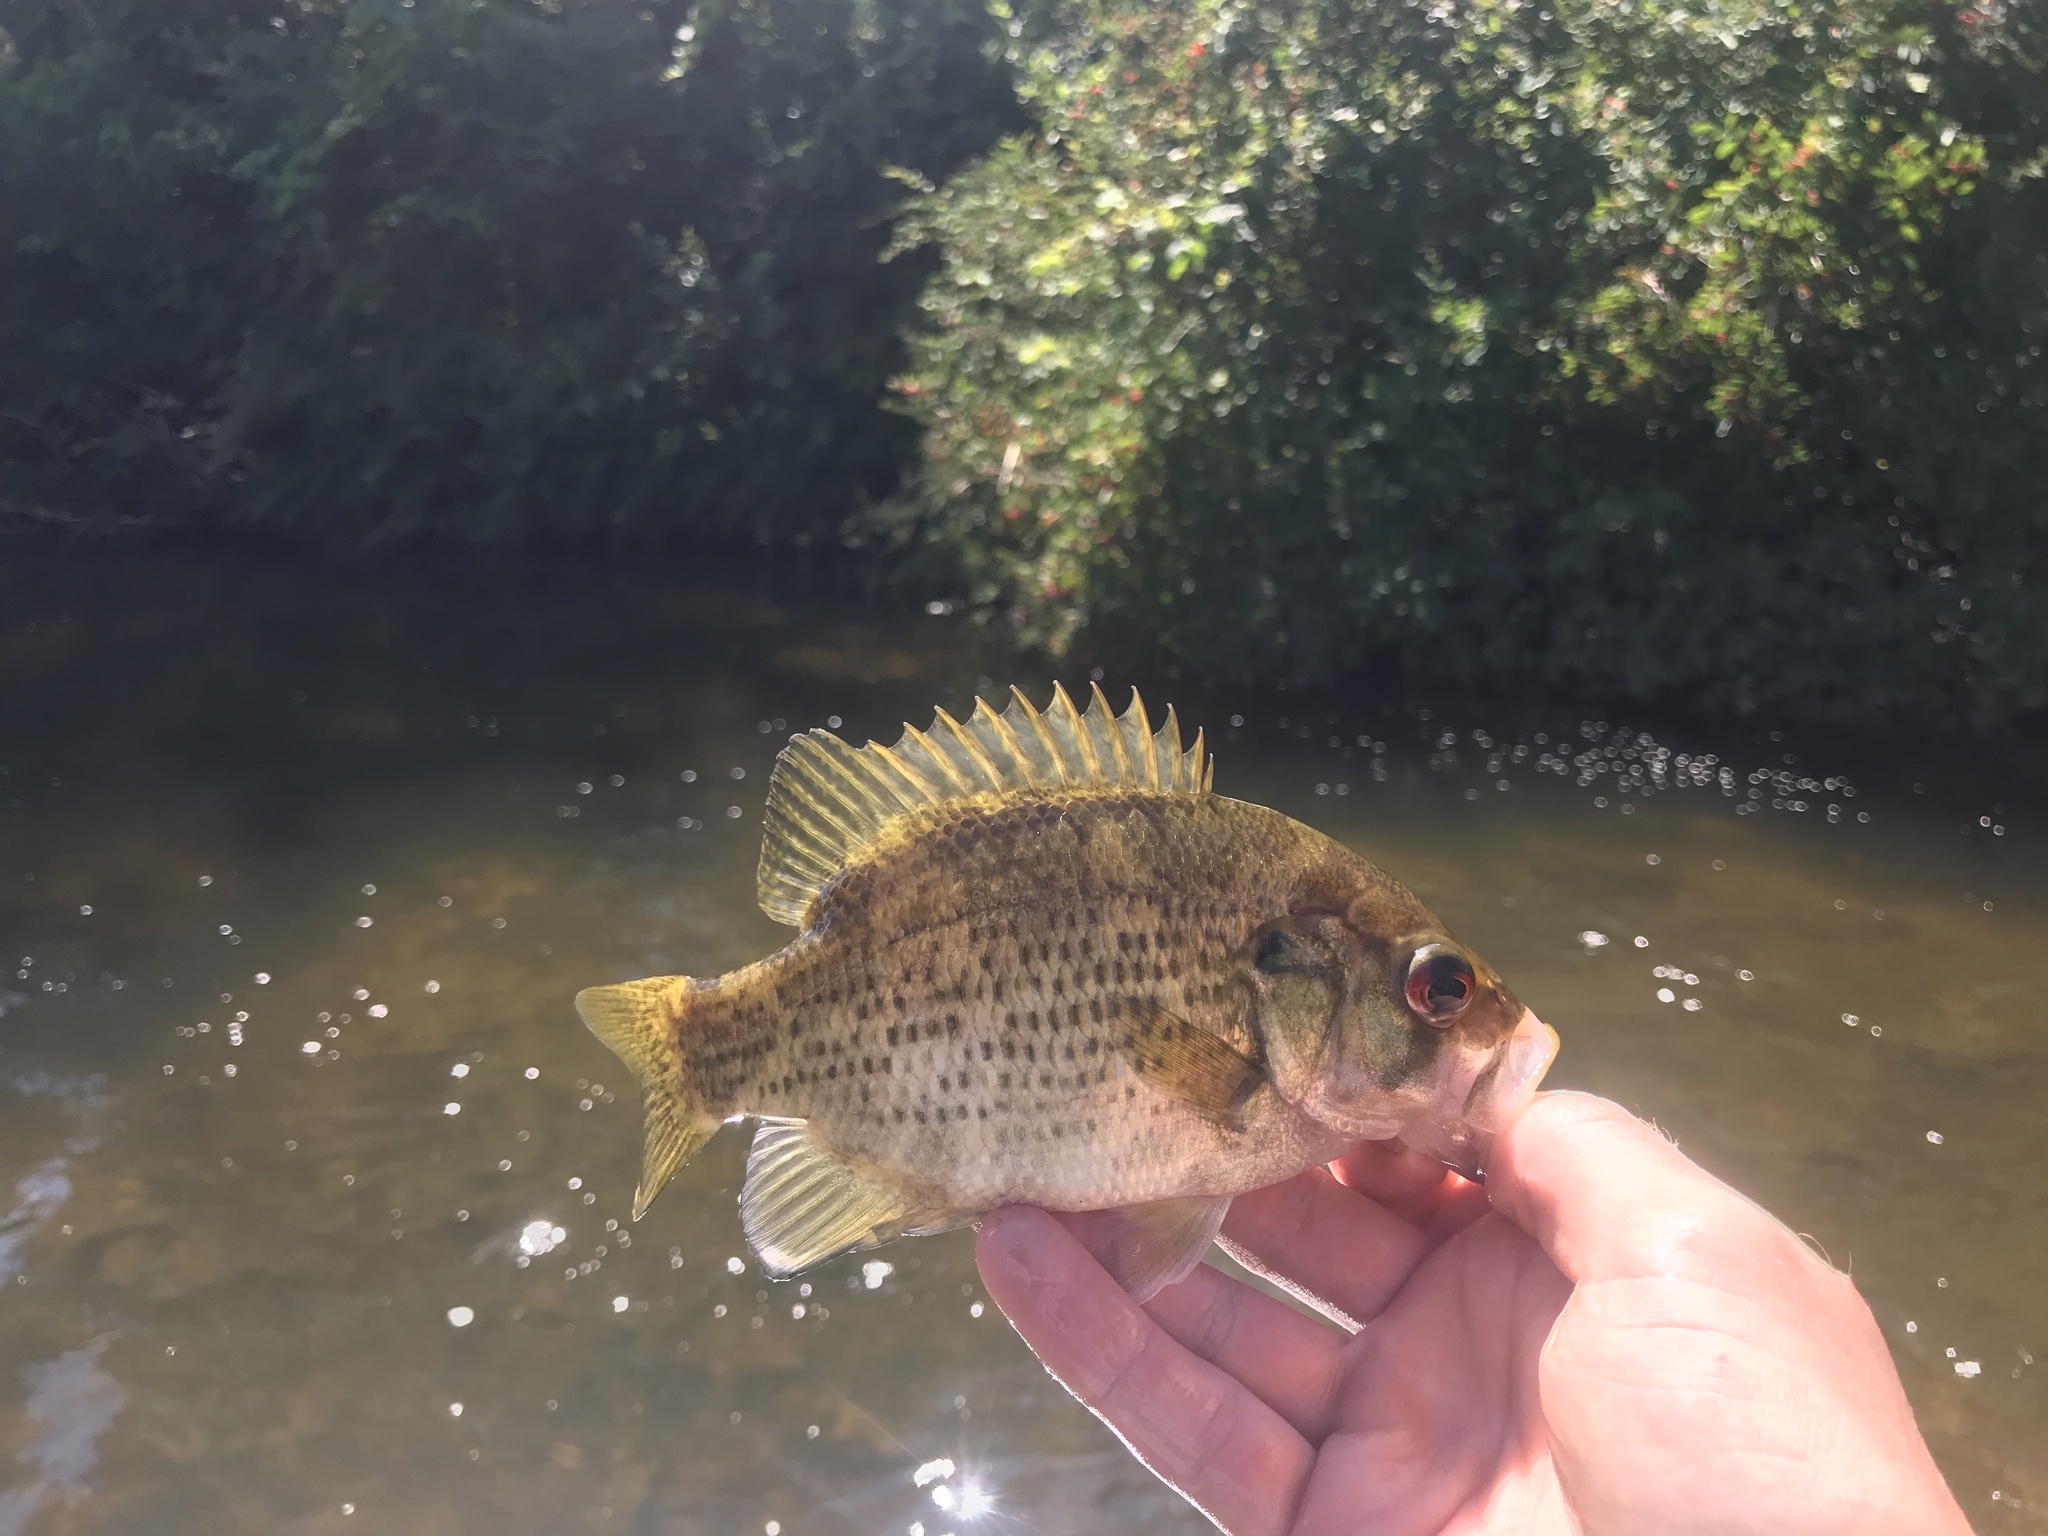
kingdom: Animalia
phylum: Chordata
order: Perciformes
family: Centrarchidae
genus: Ambloplites
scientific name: Ambloplites rupestris
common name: Rock bass
